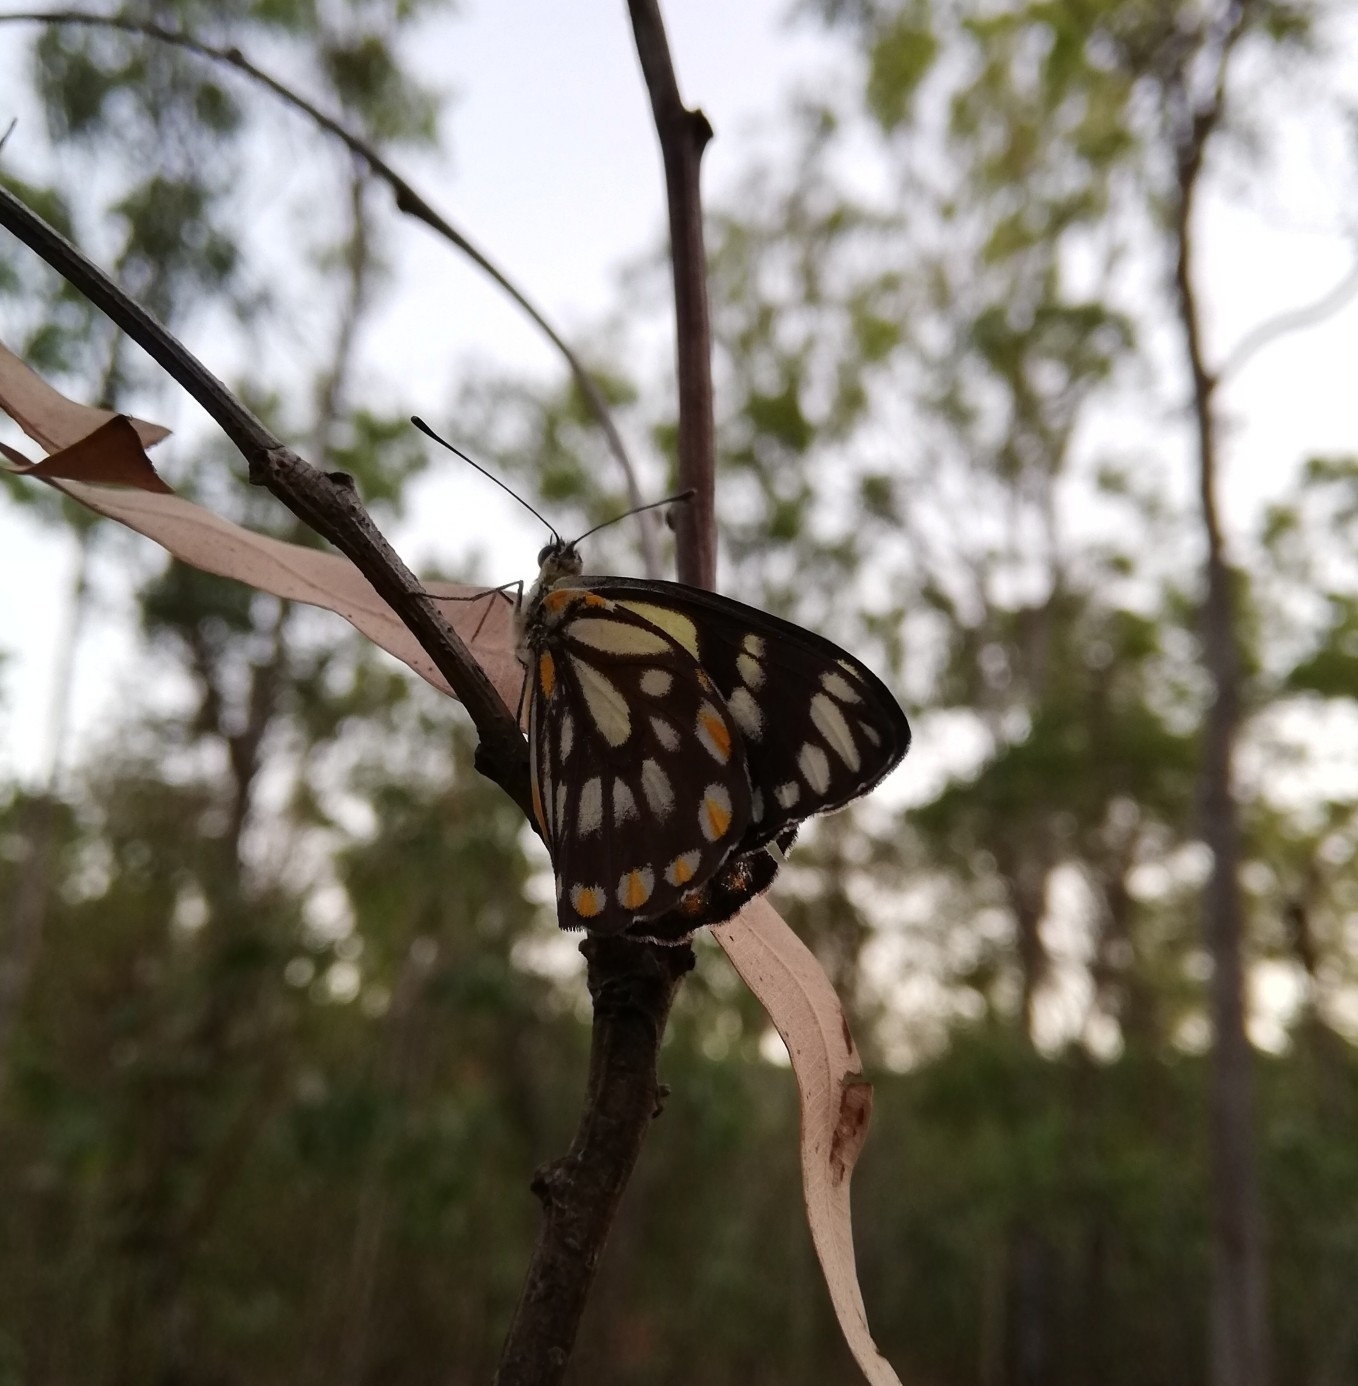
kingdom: Animalia
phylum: Arthropoda
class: Insecta
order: Lepidoptera
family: Pieridae
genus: Belenois
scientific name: Belenois java
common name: Caper white
